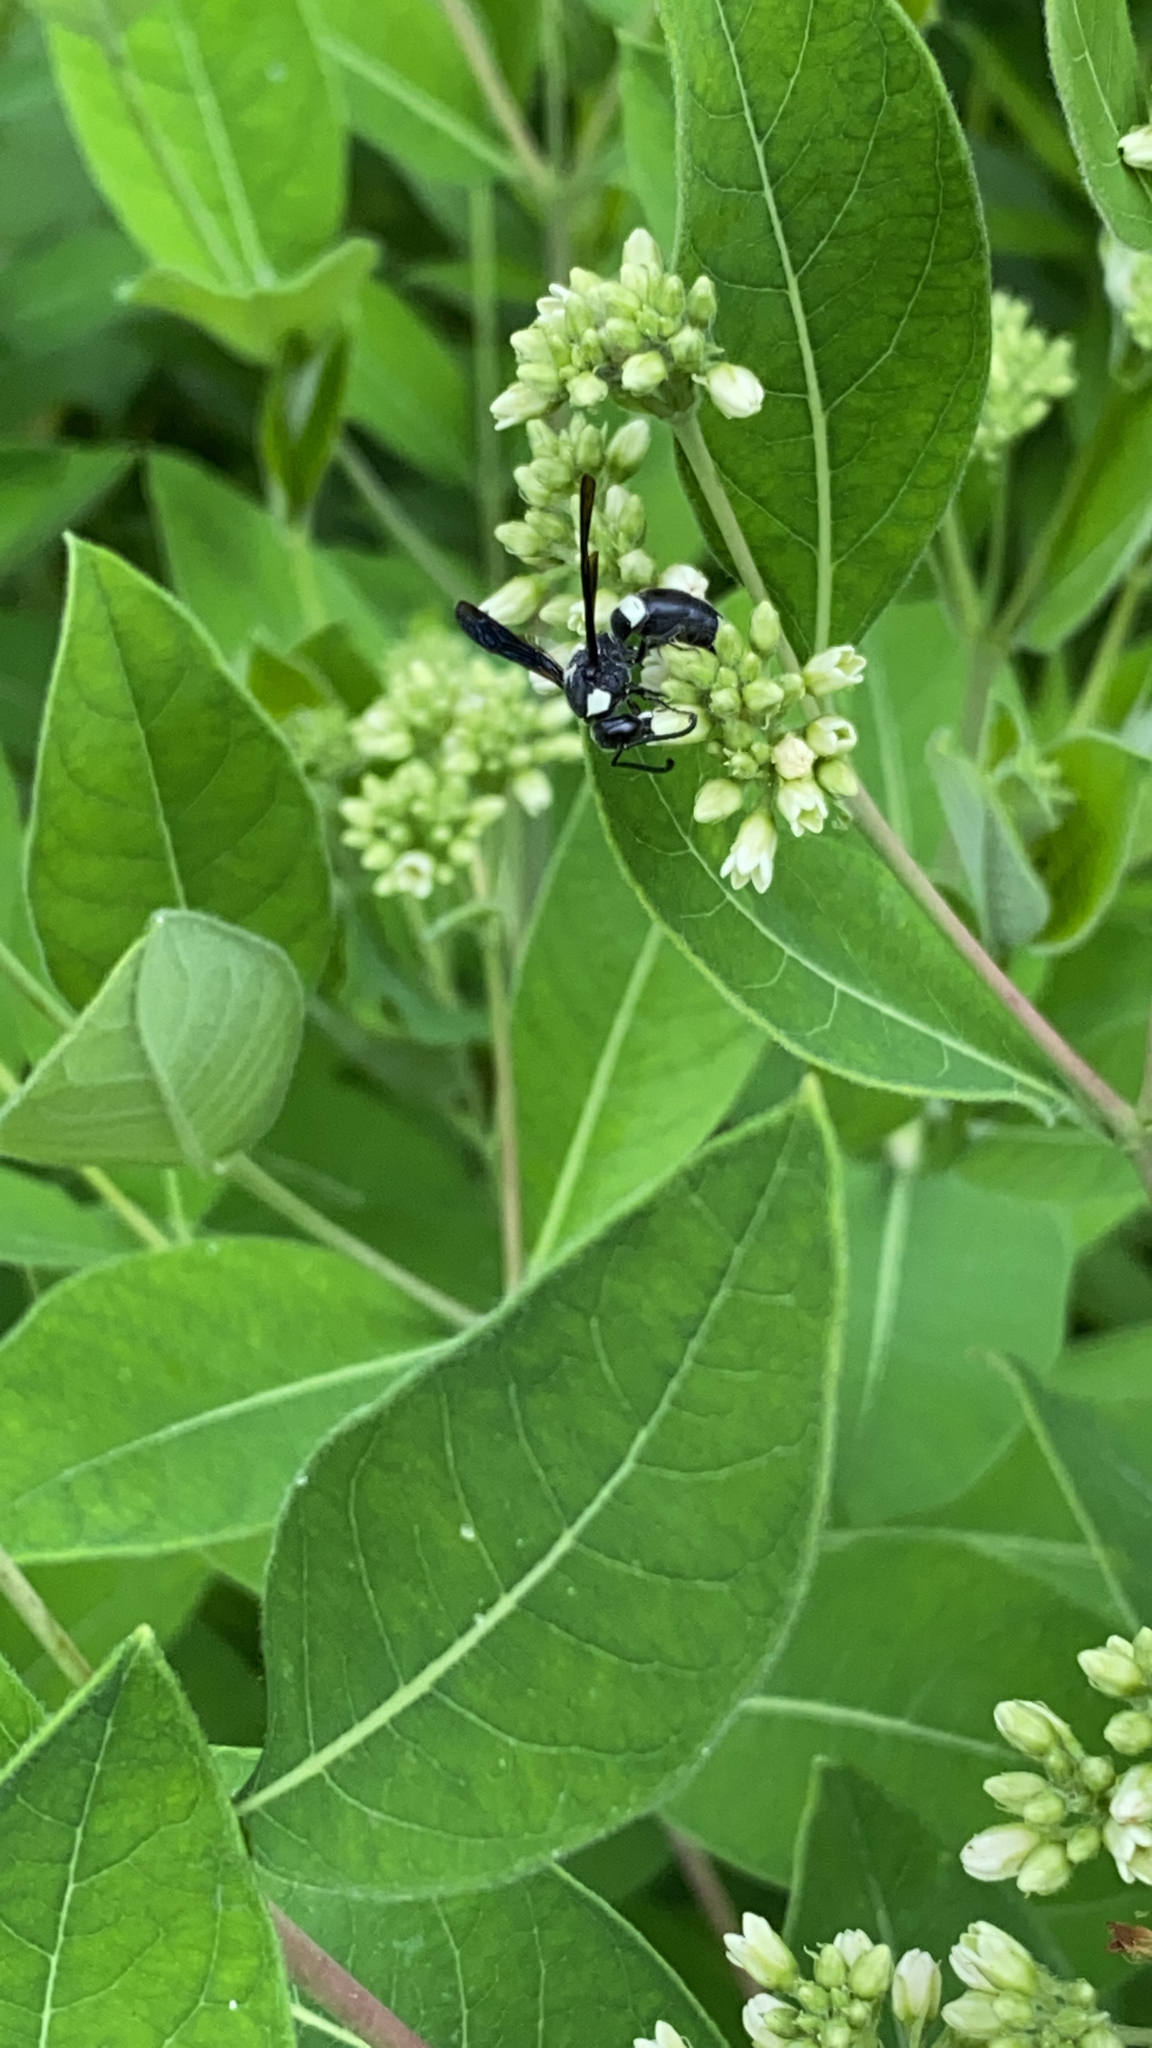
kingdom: Animalia
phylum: Arthropoda
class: Insecta
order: Hymenoptera
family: Eumenidae
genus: Monobia
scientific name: Monobia quadridens
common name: Four-toothed mason wasp
